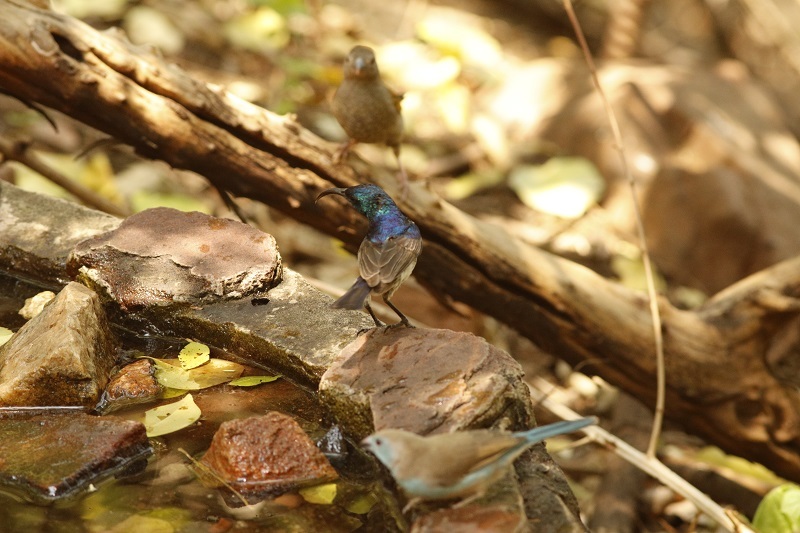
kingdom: Animalia
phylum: Chordata
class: Aves
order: Passeriformes
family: Nectariniidae
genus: Cinnyris
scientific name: Cinnyris talatala
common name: White-bellied sunbird
